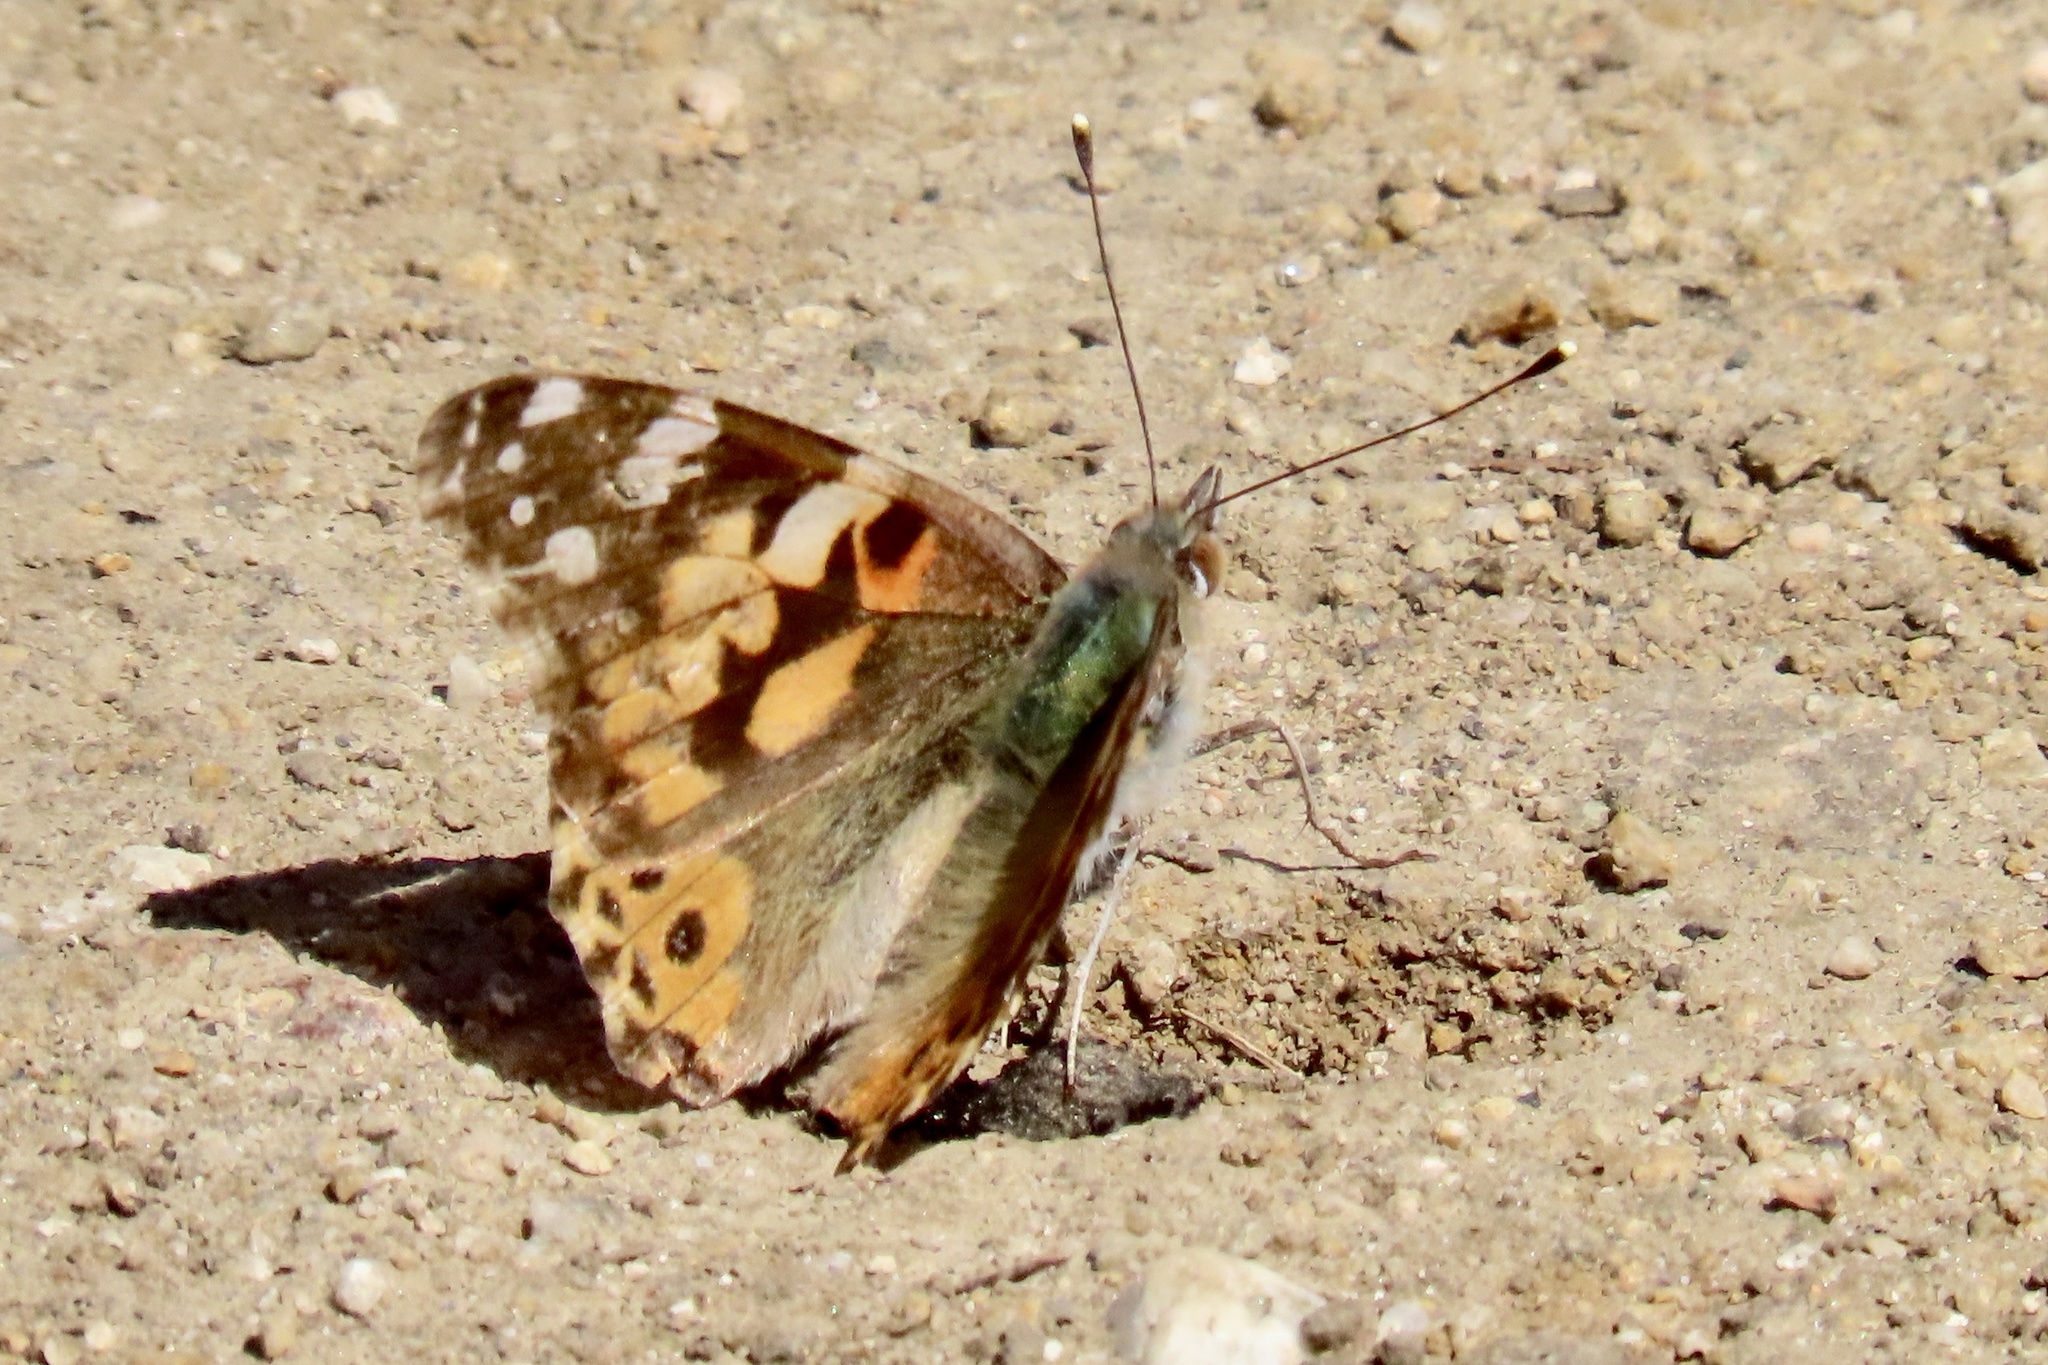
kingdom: Animalia
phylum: Arthropoda
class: Insecta
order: Lepidoptera
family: Nymphalidae
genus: Vanessa
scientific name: Vanessa cardui
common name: Painted lady
